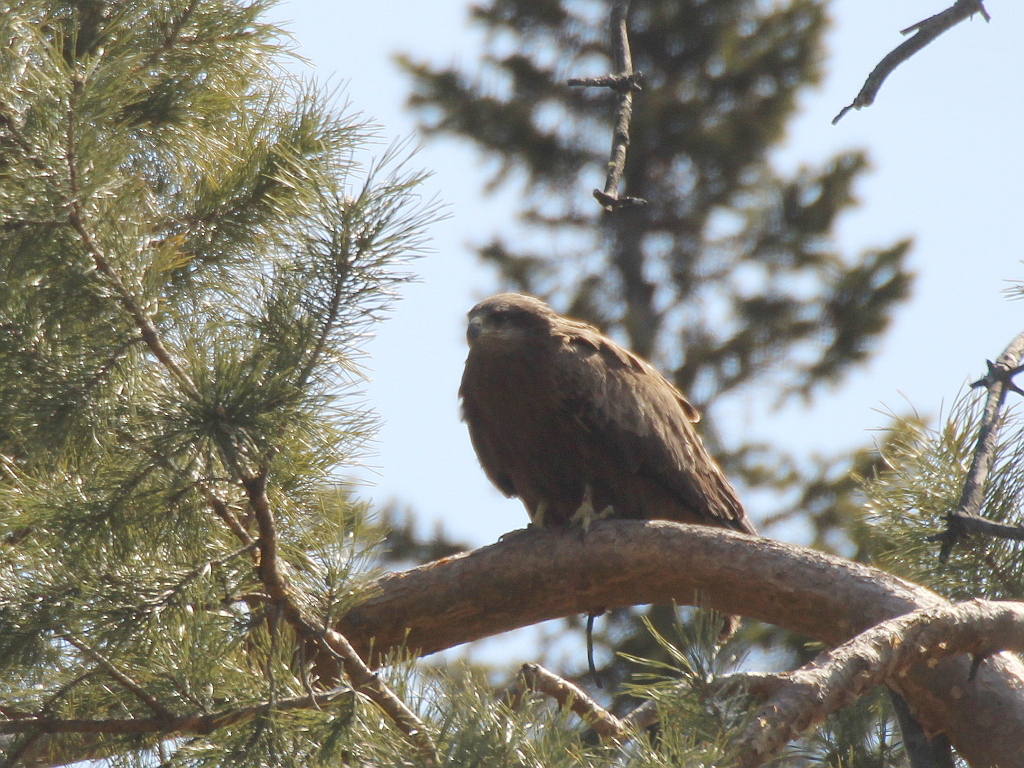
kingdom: Animalia
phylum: Chordata
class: Aves
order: Accipitriformes
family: Accipitridae
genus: Milvus
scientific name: Milvus migrans
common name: Black kite
